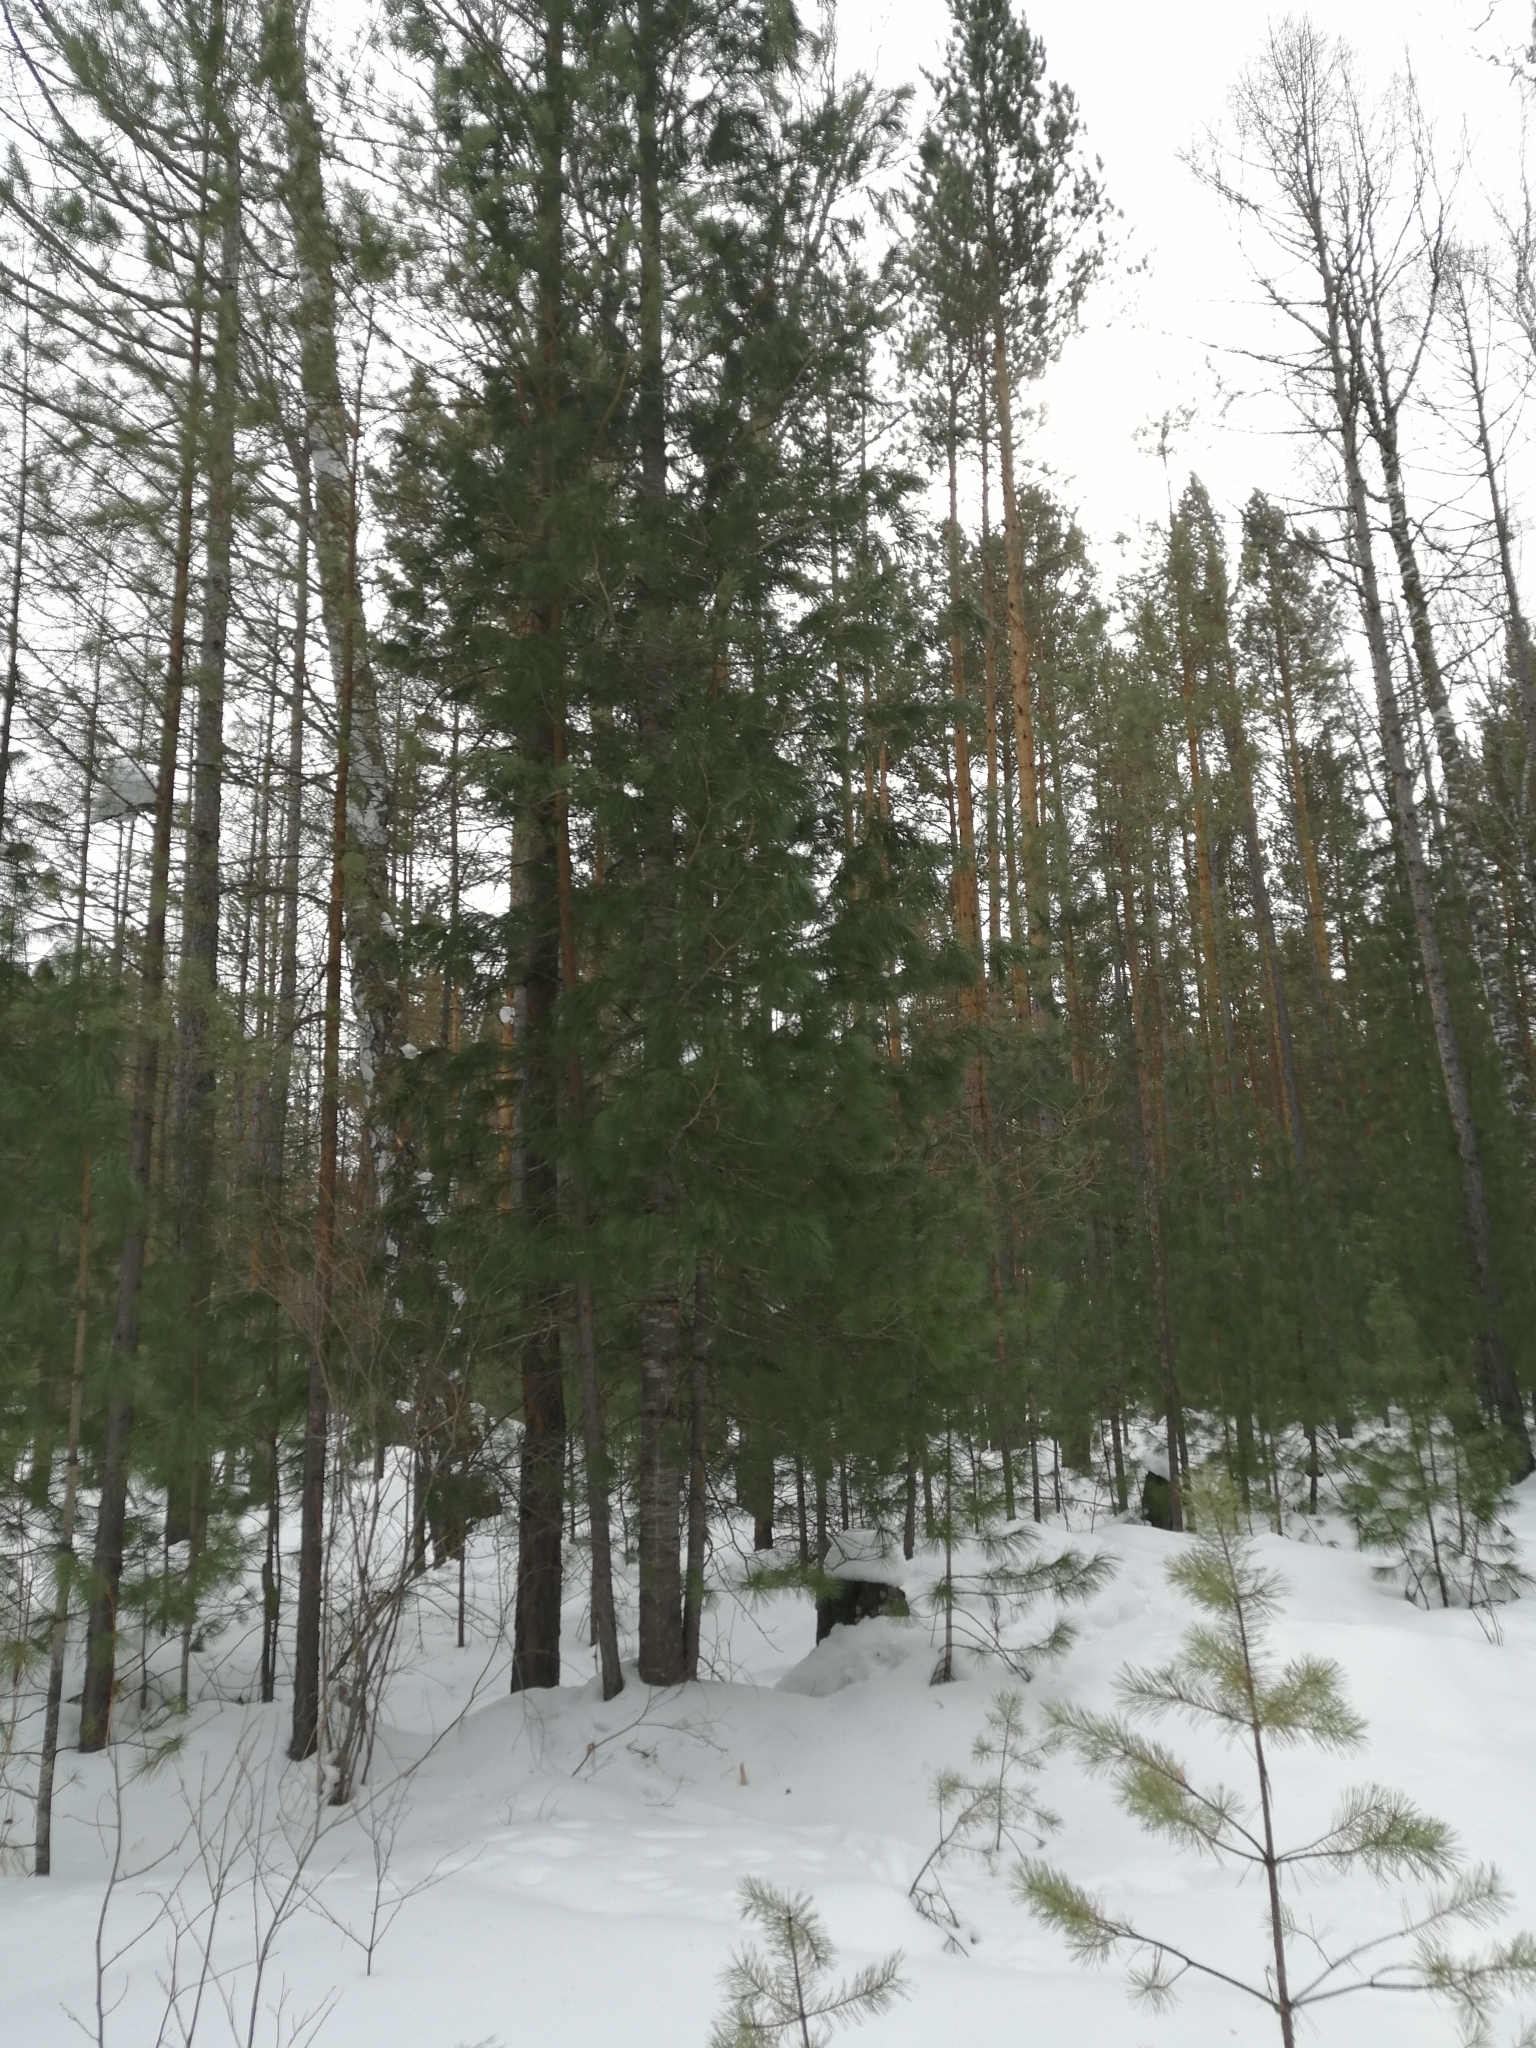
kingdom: Plantae
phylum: Tracheophyta
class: Pinopsida
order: Pinales
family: Pinaceae
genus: Pinus
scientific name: Pinus sibirica
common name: Siberian pine
